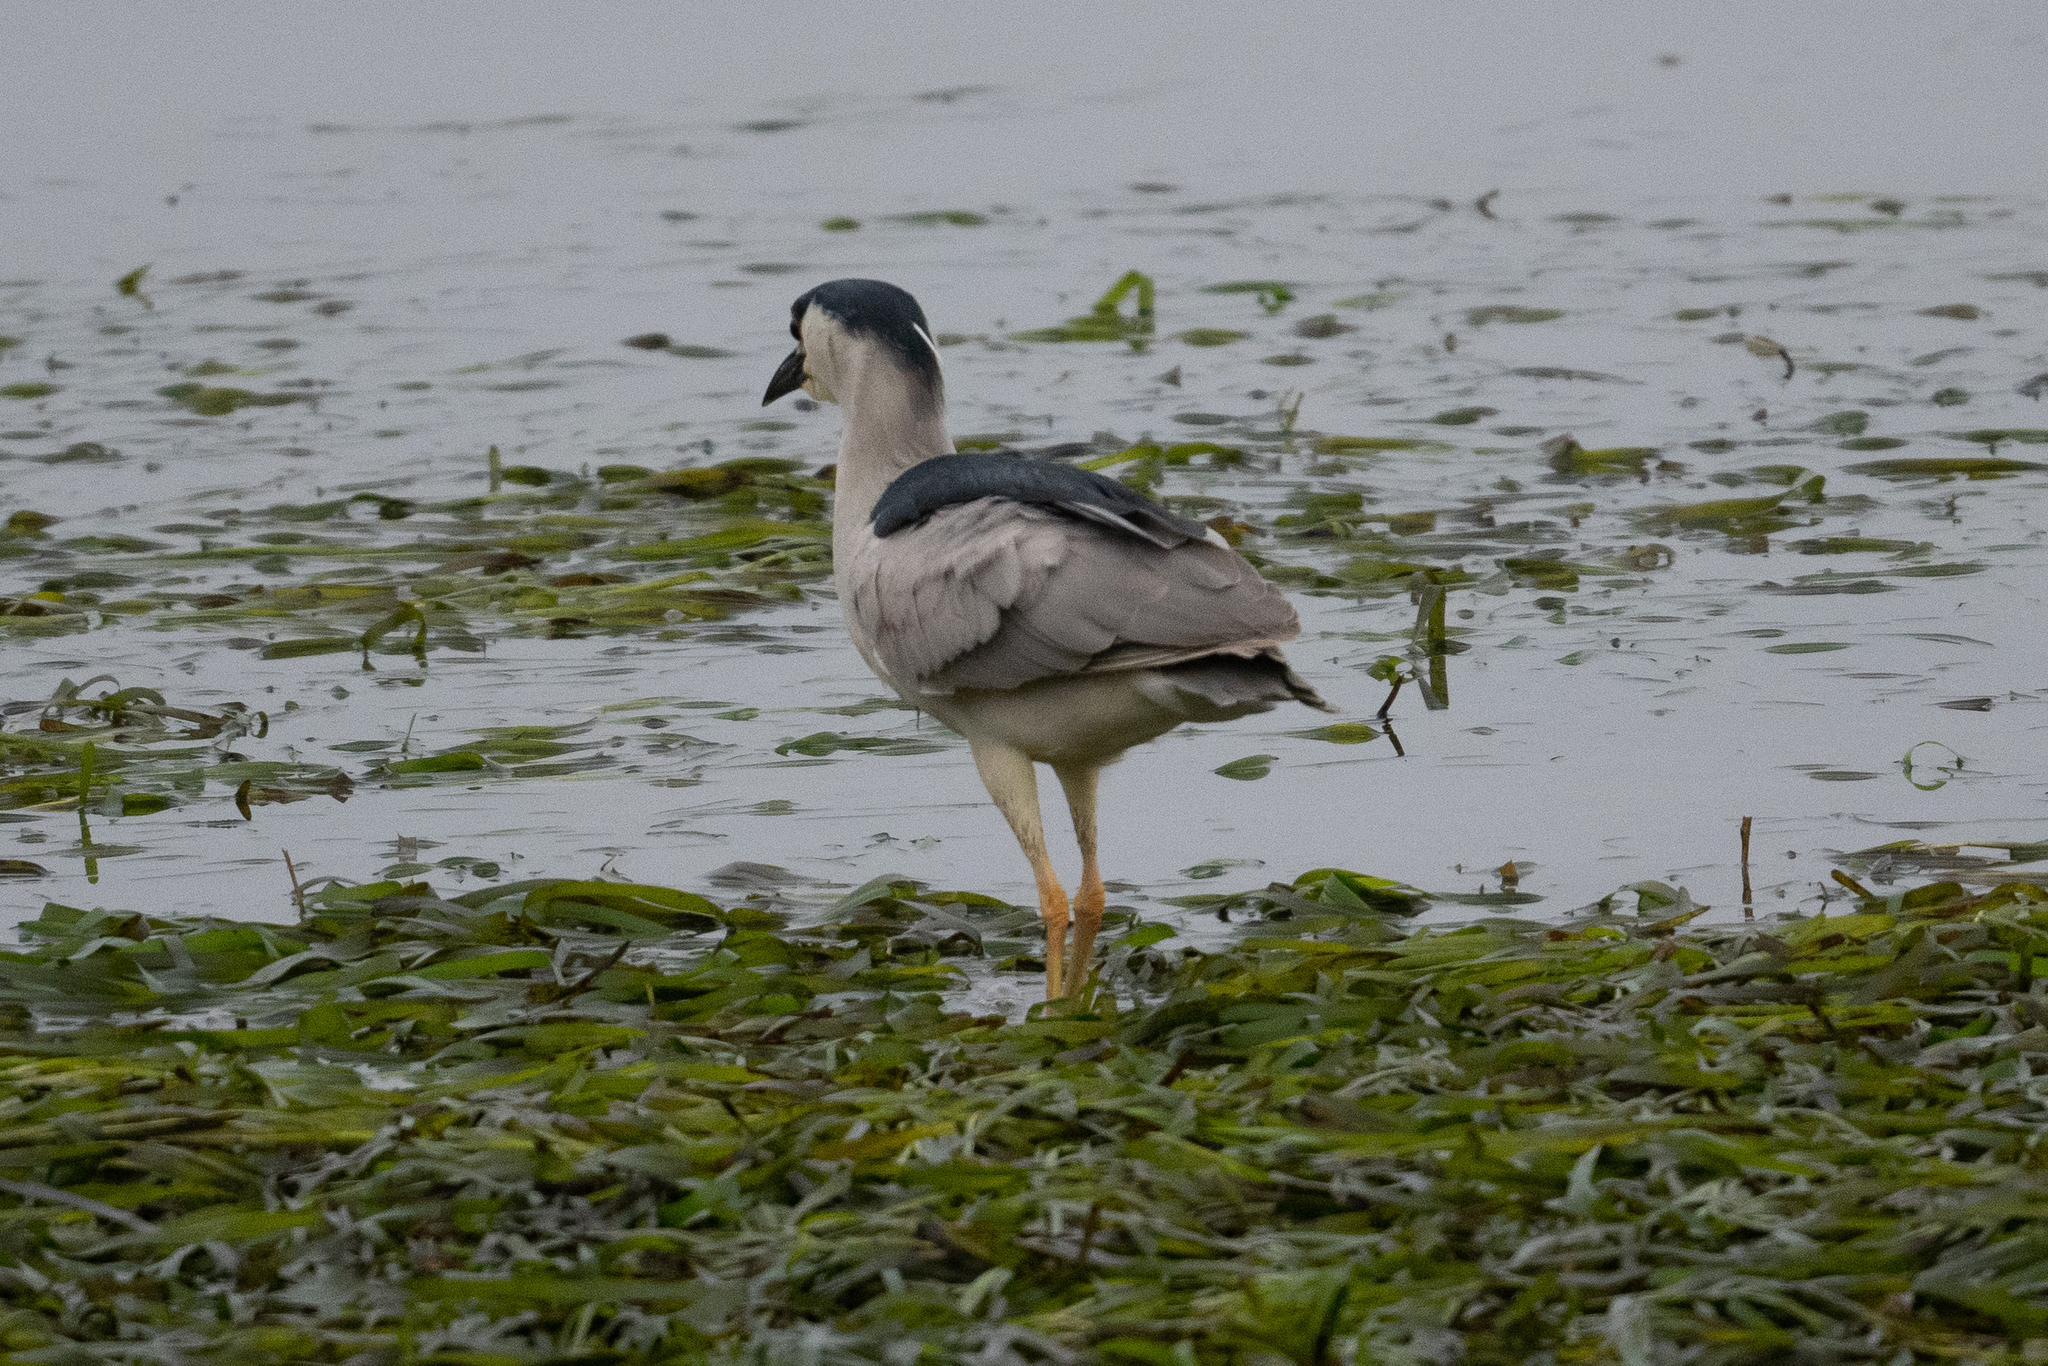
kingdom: Animalia
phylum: Chordata
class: Aves
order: Pelecaniformes
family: Ardeidae
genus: Nycticorax
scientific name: Nycticorax nycticorax
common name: Black-crowned night heron
